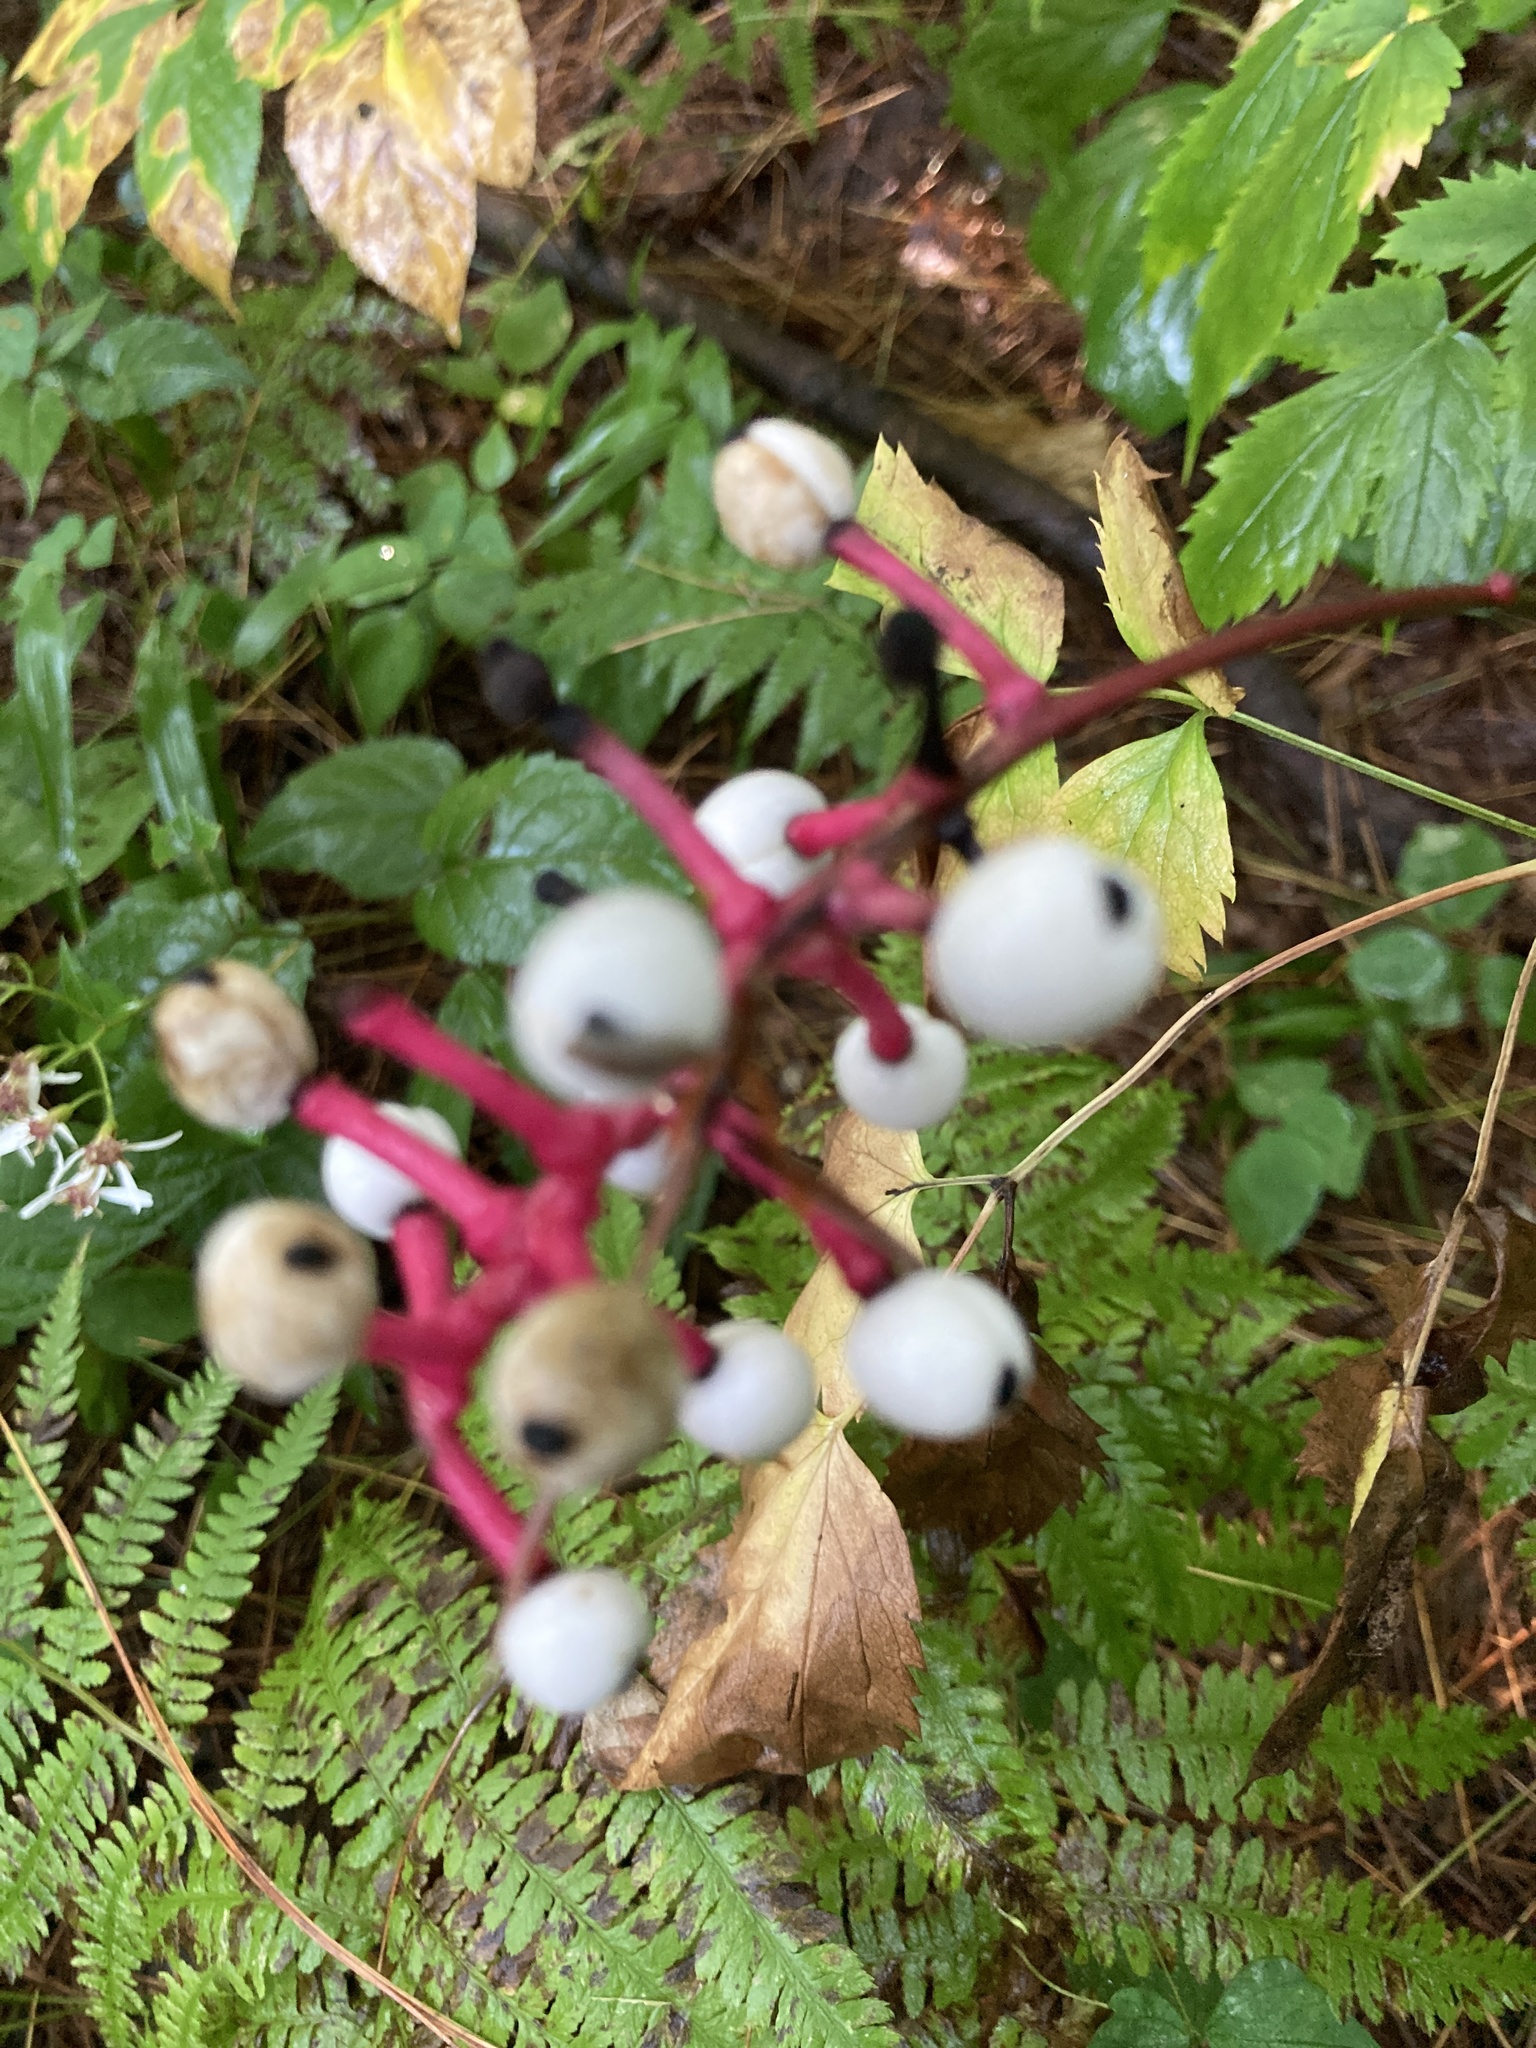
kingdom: Plantae
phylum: Tracheophyta
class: Magnoliopsida
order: Ranunculales
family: Ranunculaceae
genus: Actaea
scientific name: Actaea pachypoda
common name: Doll's-eyes
